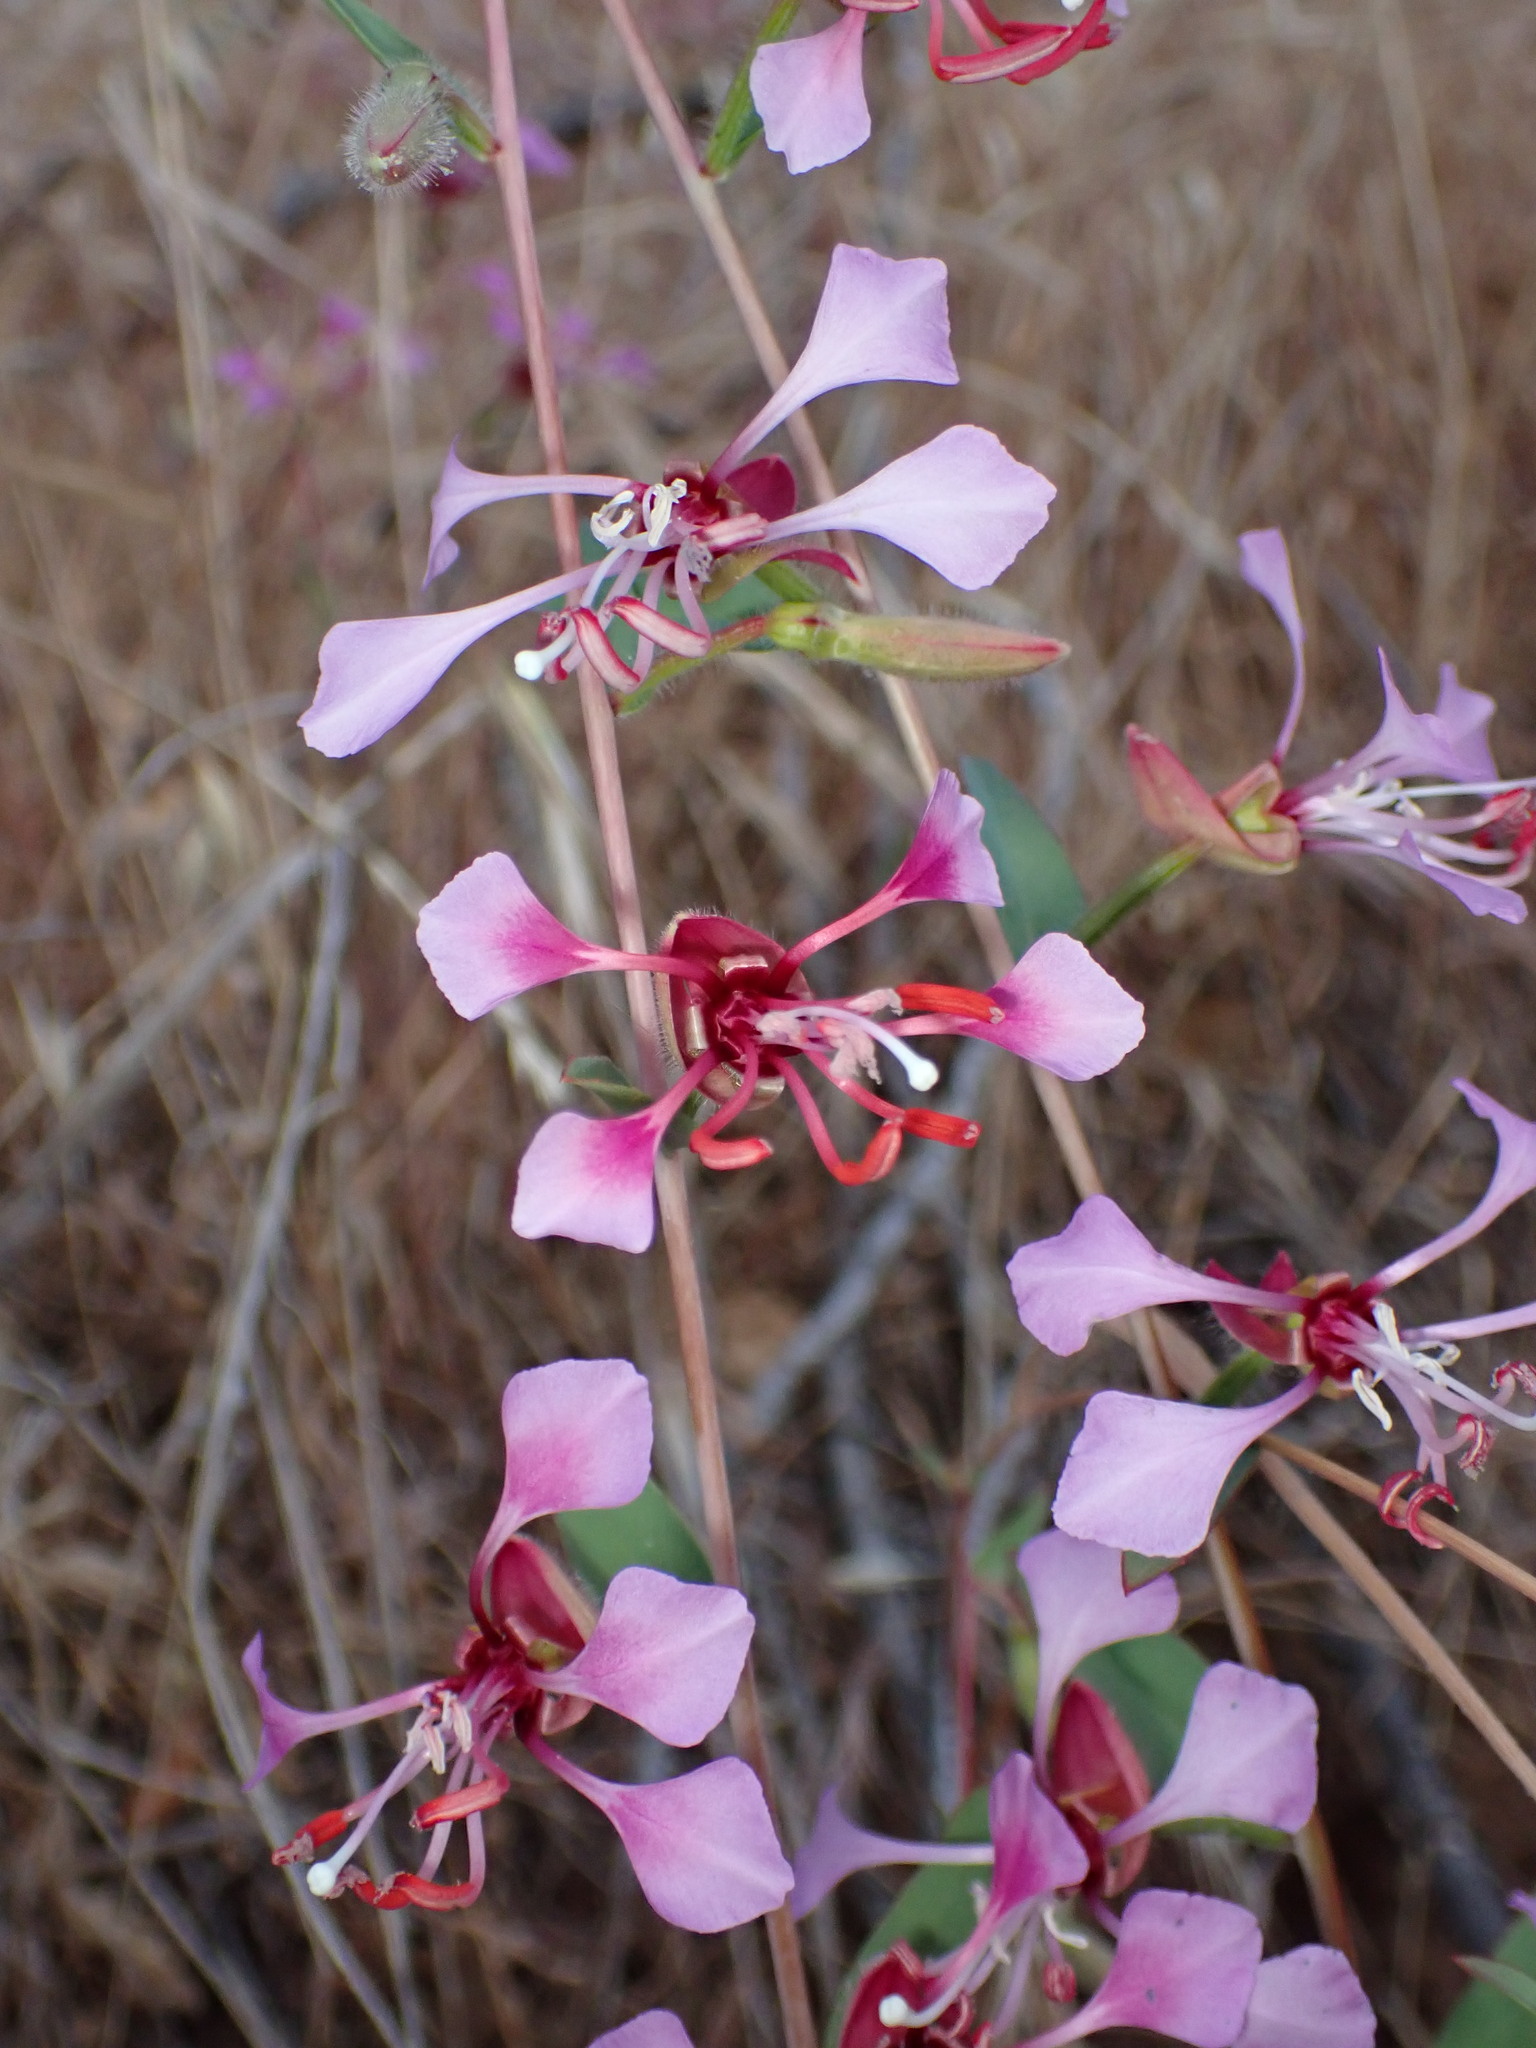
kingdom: Plantae
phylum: Tracheophyta
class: Magnoliopsida
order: Myrtales
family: Onagraceae
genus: Clarkia
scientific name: Clarkia unguiculata
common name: Clarkia
